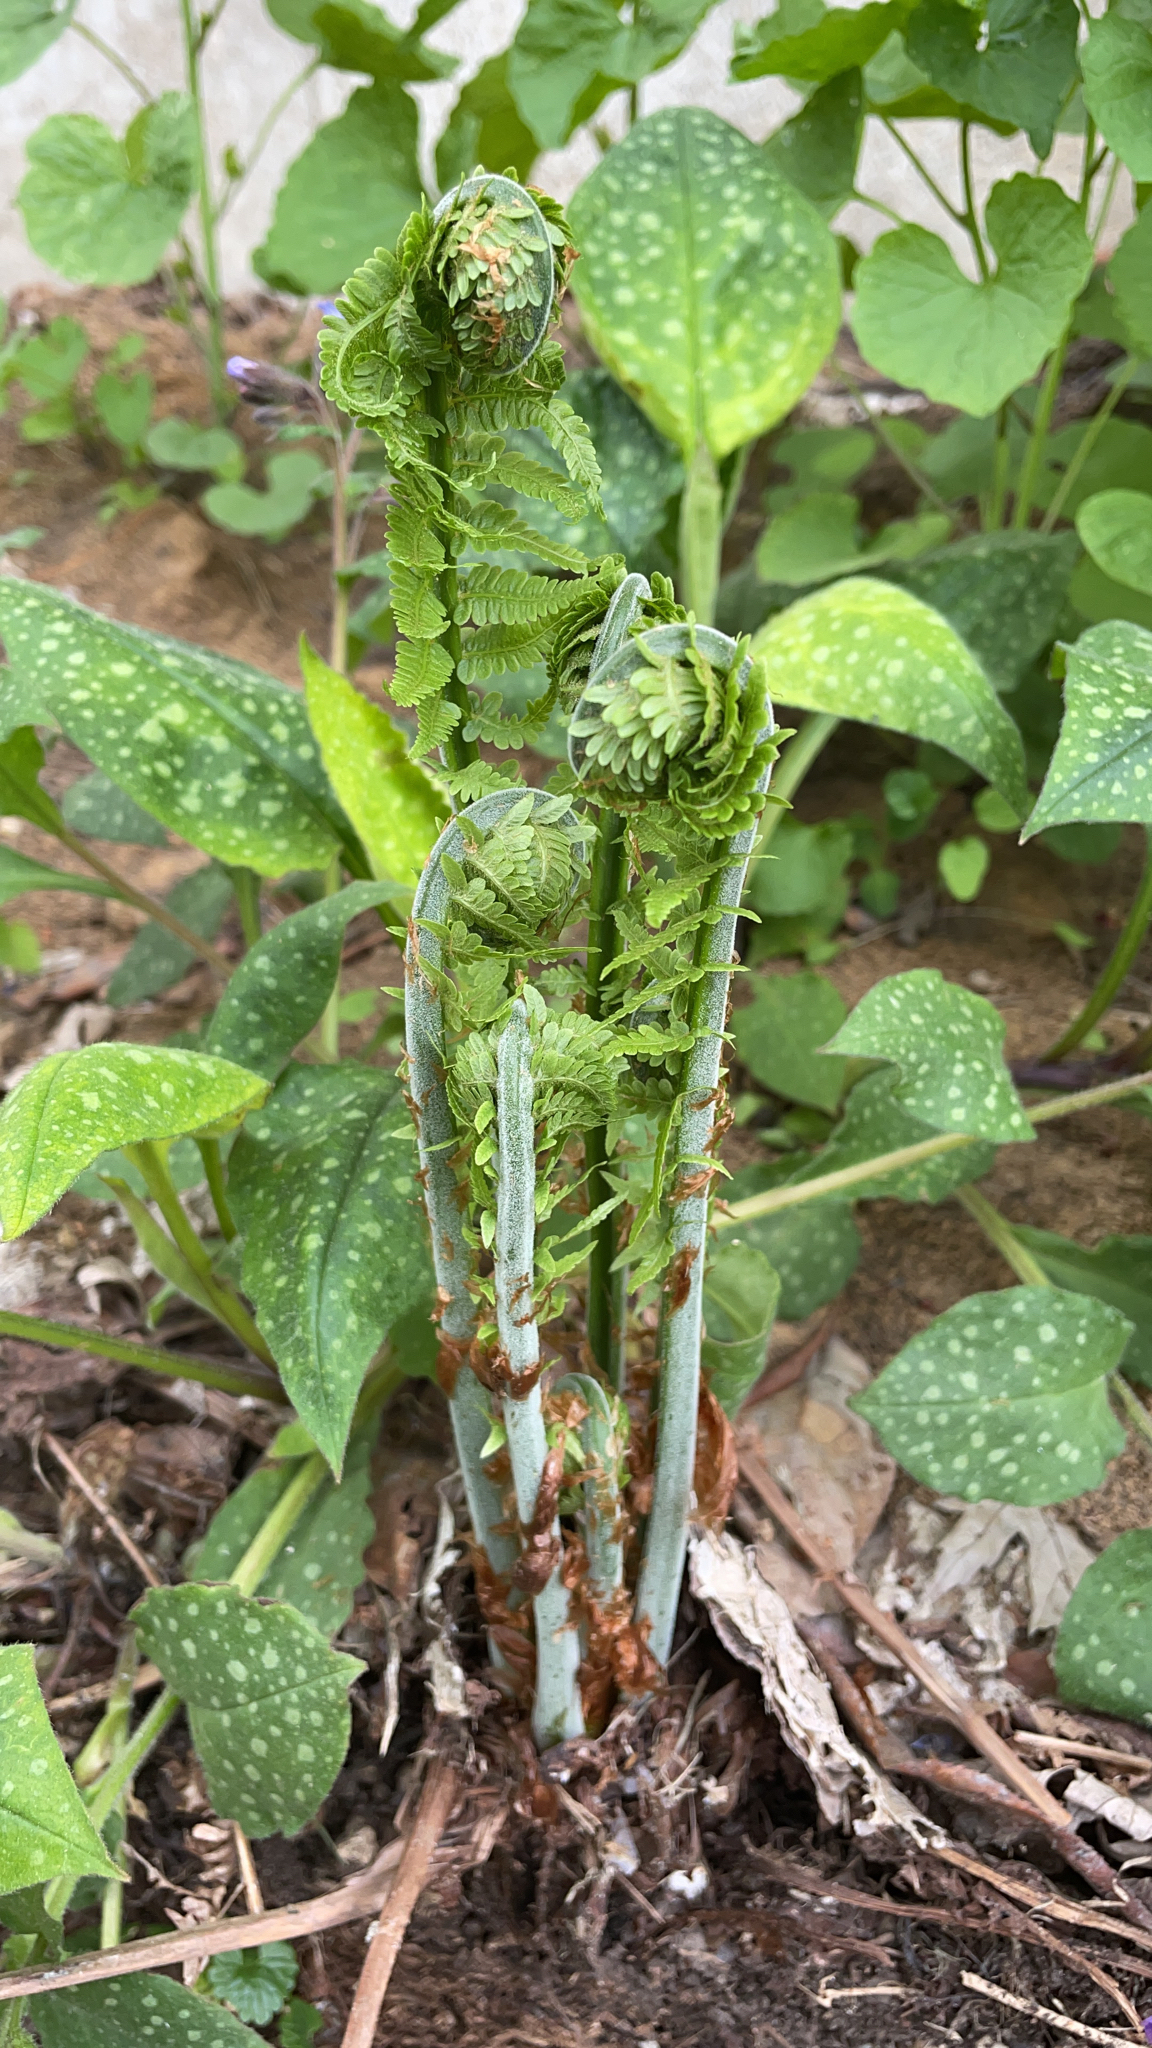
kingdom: Plantae
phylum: Tracheophyta
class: Polypodiopsida
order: Polypodiales
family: Onocleaceae
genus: Matteuccia
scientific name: Matteuccia struthiopteris
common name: Ostrich fern
